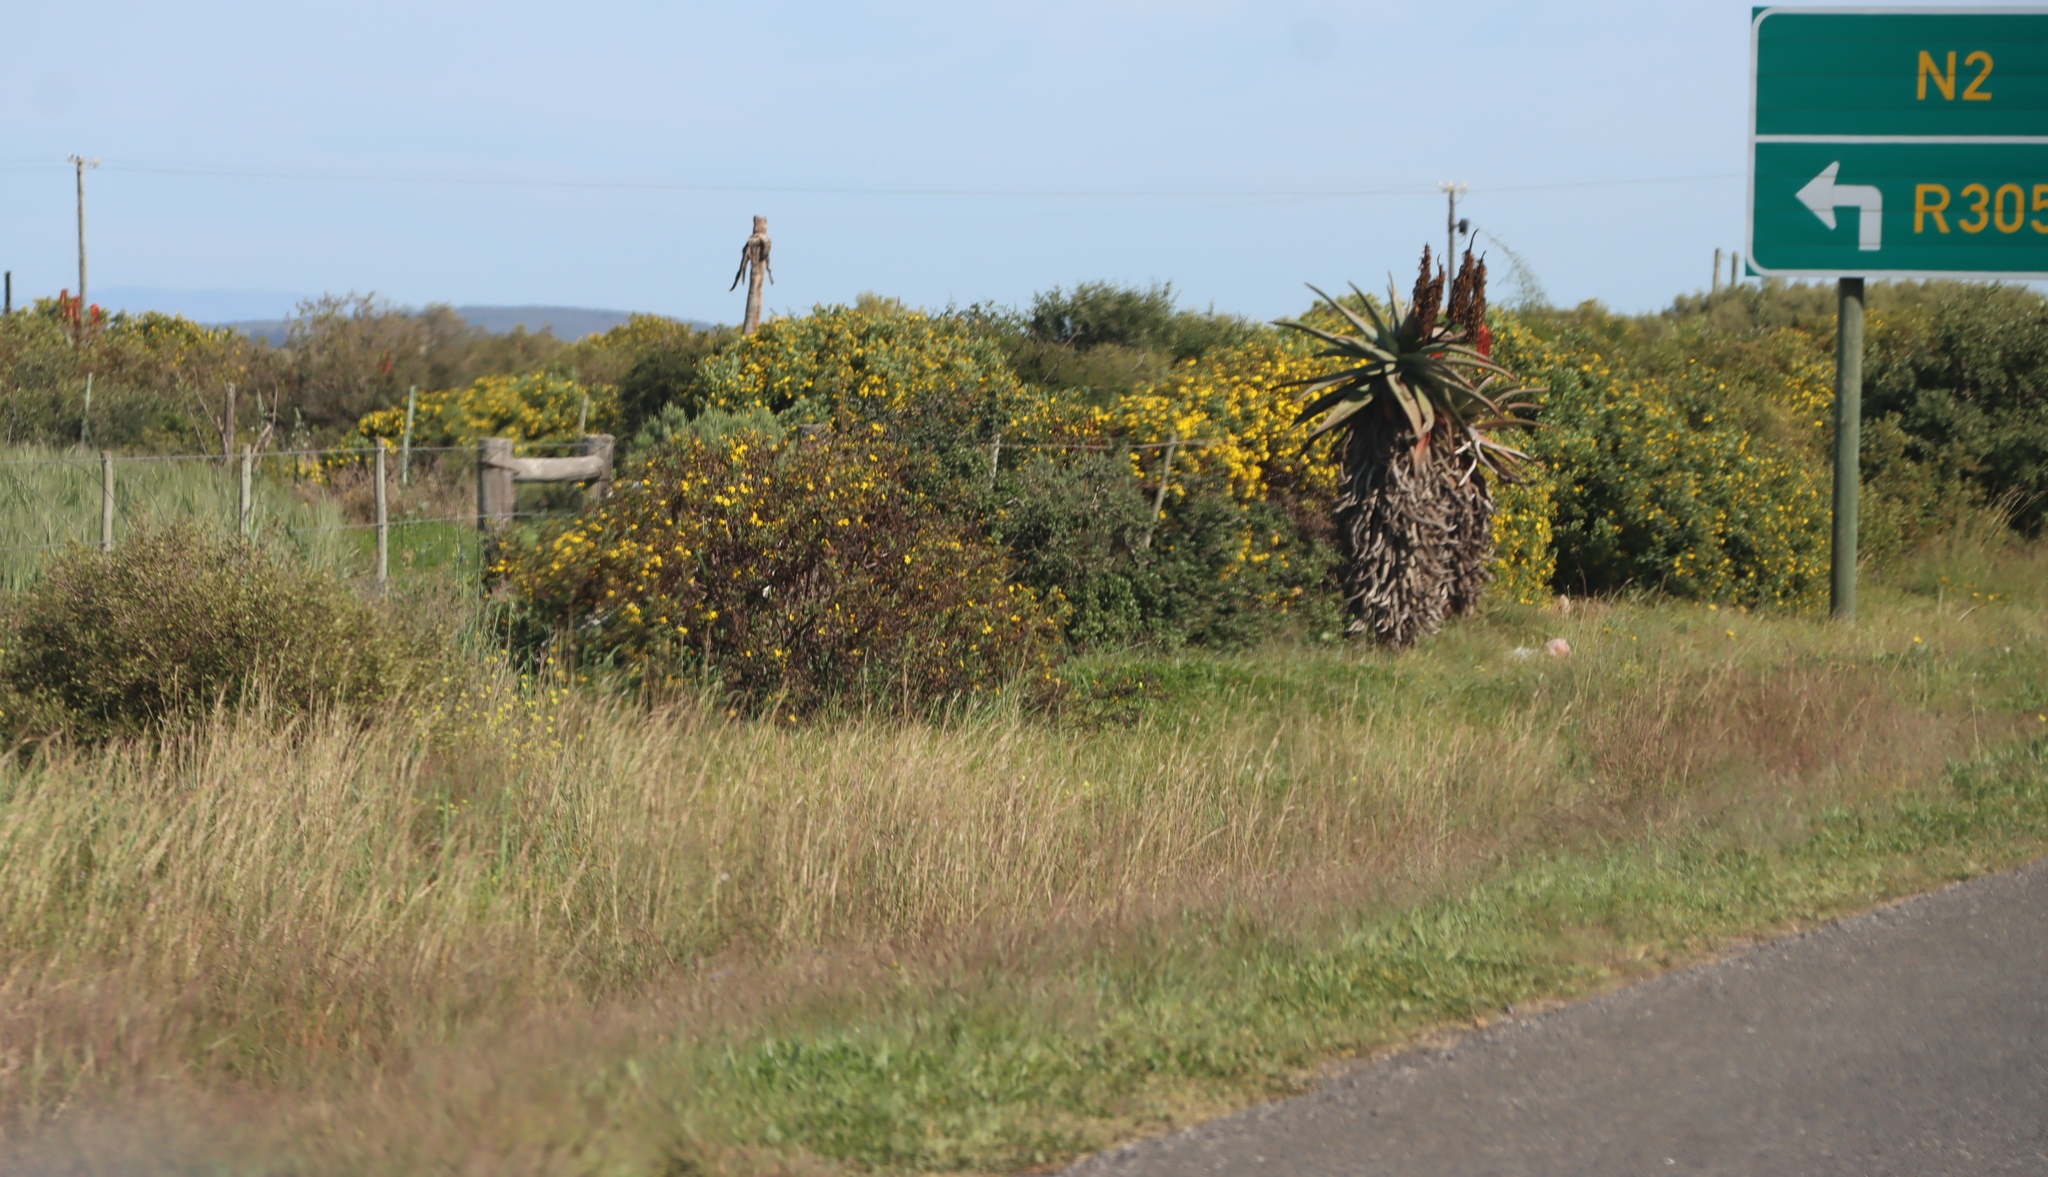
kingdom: Plantae
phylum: Tracheophyta
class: Liliopsida
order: Asparagales
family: Asphodelaceae
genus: Aloe
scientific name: Aloe ferox
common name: Bitter aloe
